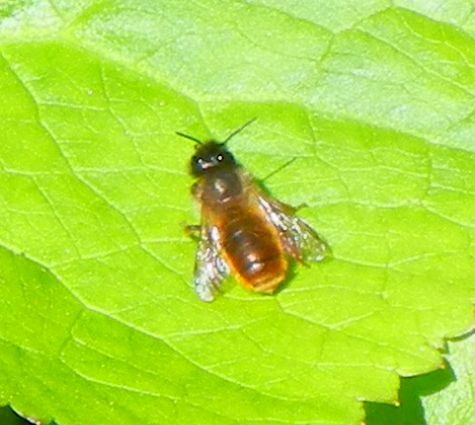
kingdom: Animalia
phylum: Arthropoda
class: Insecta
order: Hymenoptera
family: Megachilidae
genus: Osmia
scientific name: Osmia bicornis
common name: Red mason bee
